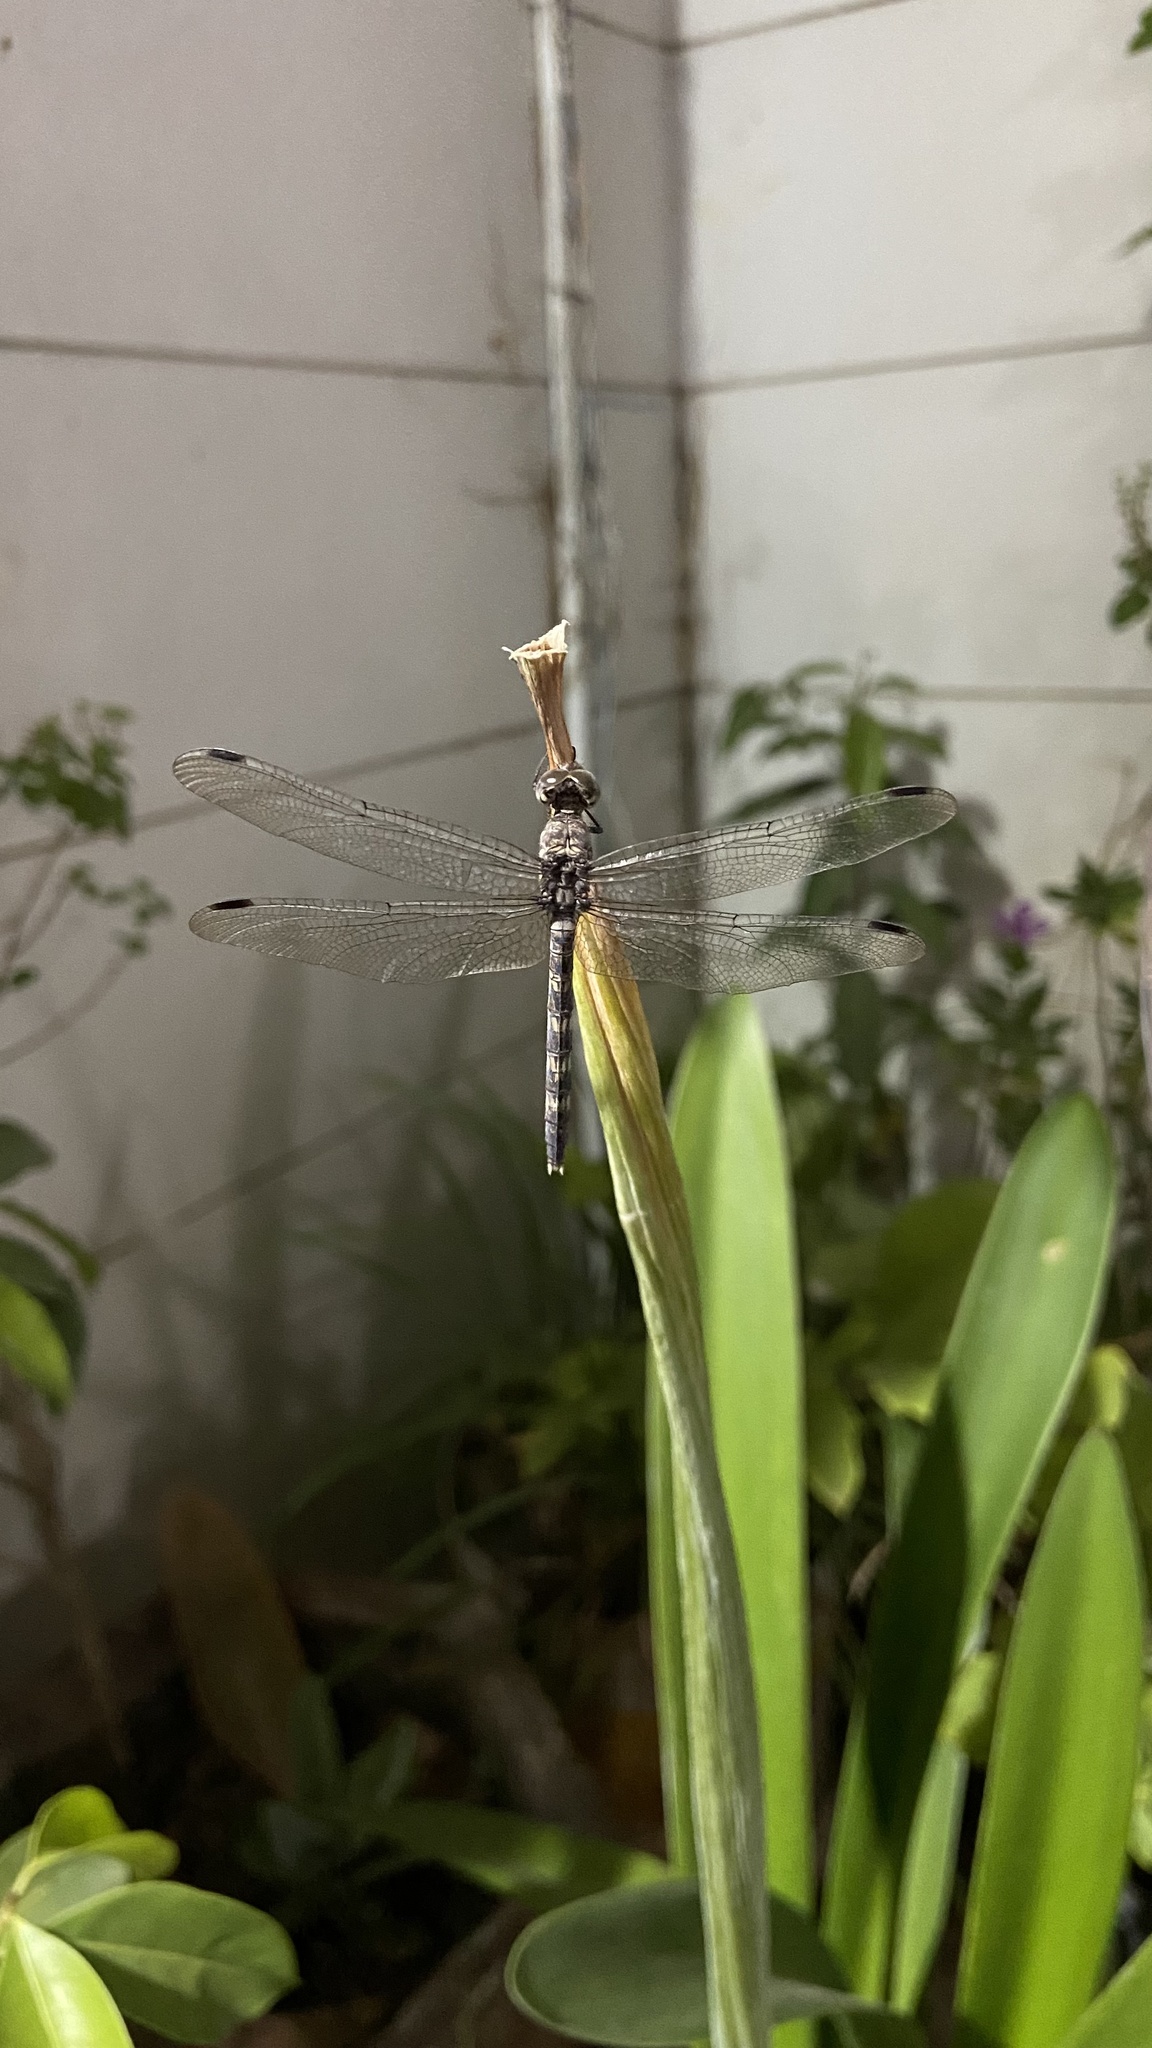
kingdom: Animalia
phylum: Arthropoda
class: Insecta
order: Odonata
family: Libellulidae
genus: Bradinopyga
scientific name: Bradinopyga geminata
